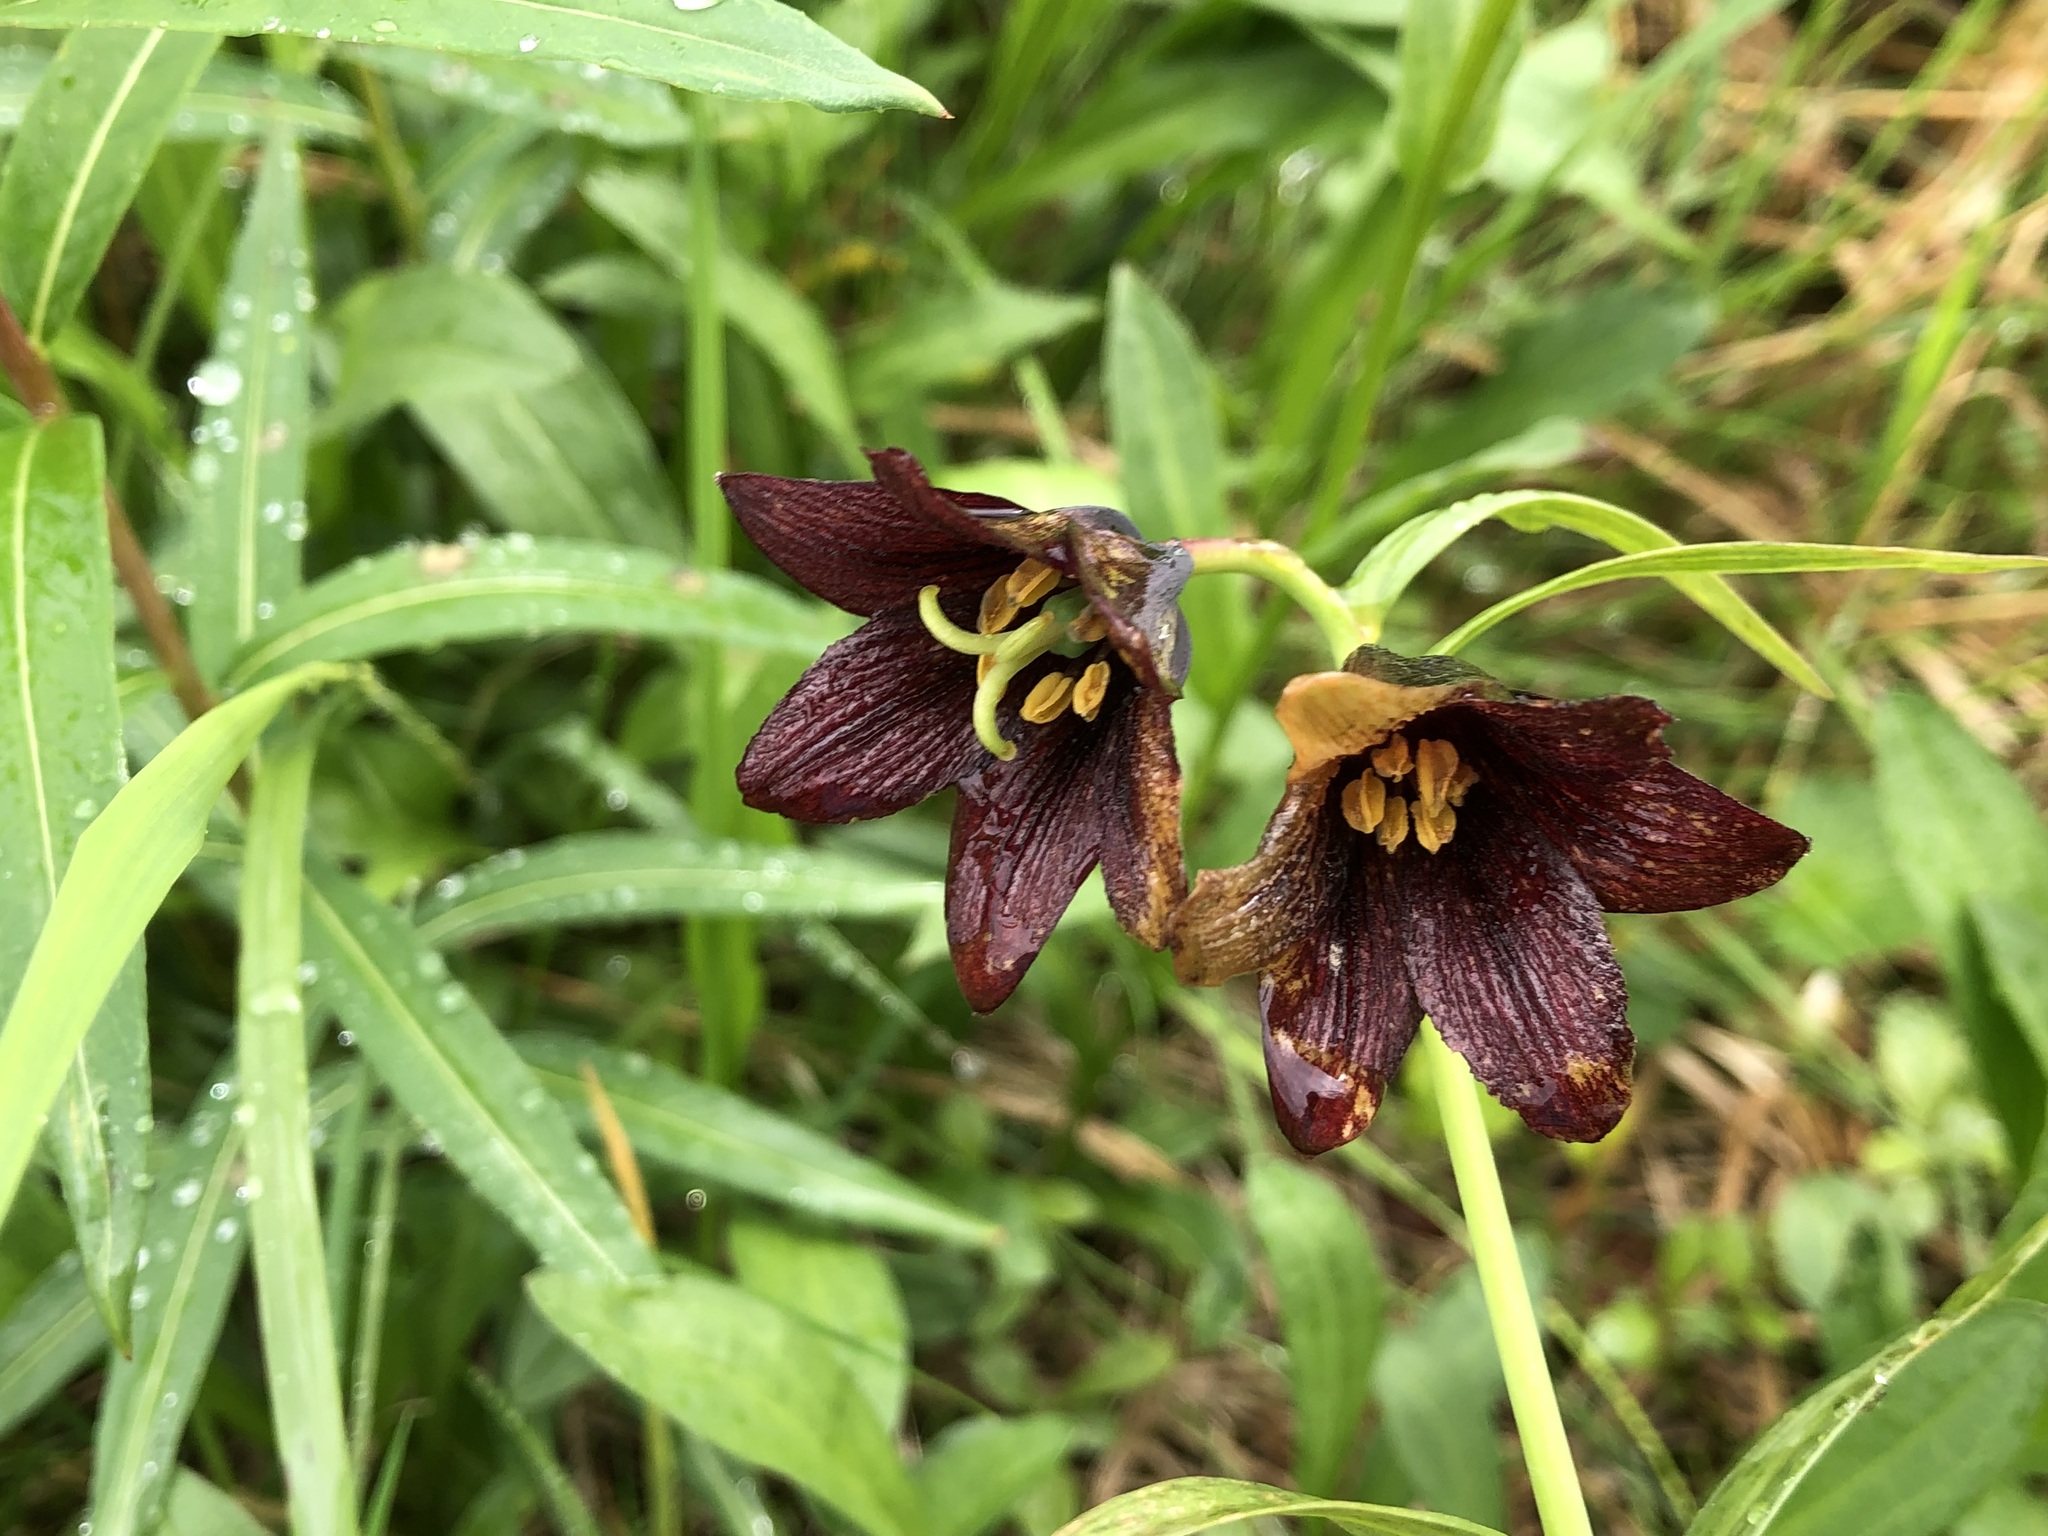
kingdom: Plantae
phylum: Tracheophyta
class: Liliopsida
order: Liliales
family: Liliaceae
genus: Fritillaria
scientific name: Fritillaria camschatcensis
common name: Kamchatka fritillary
